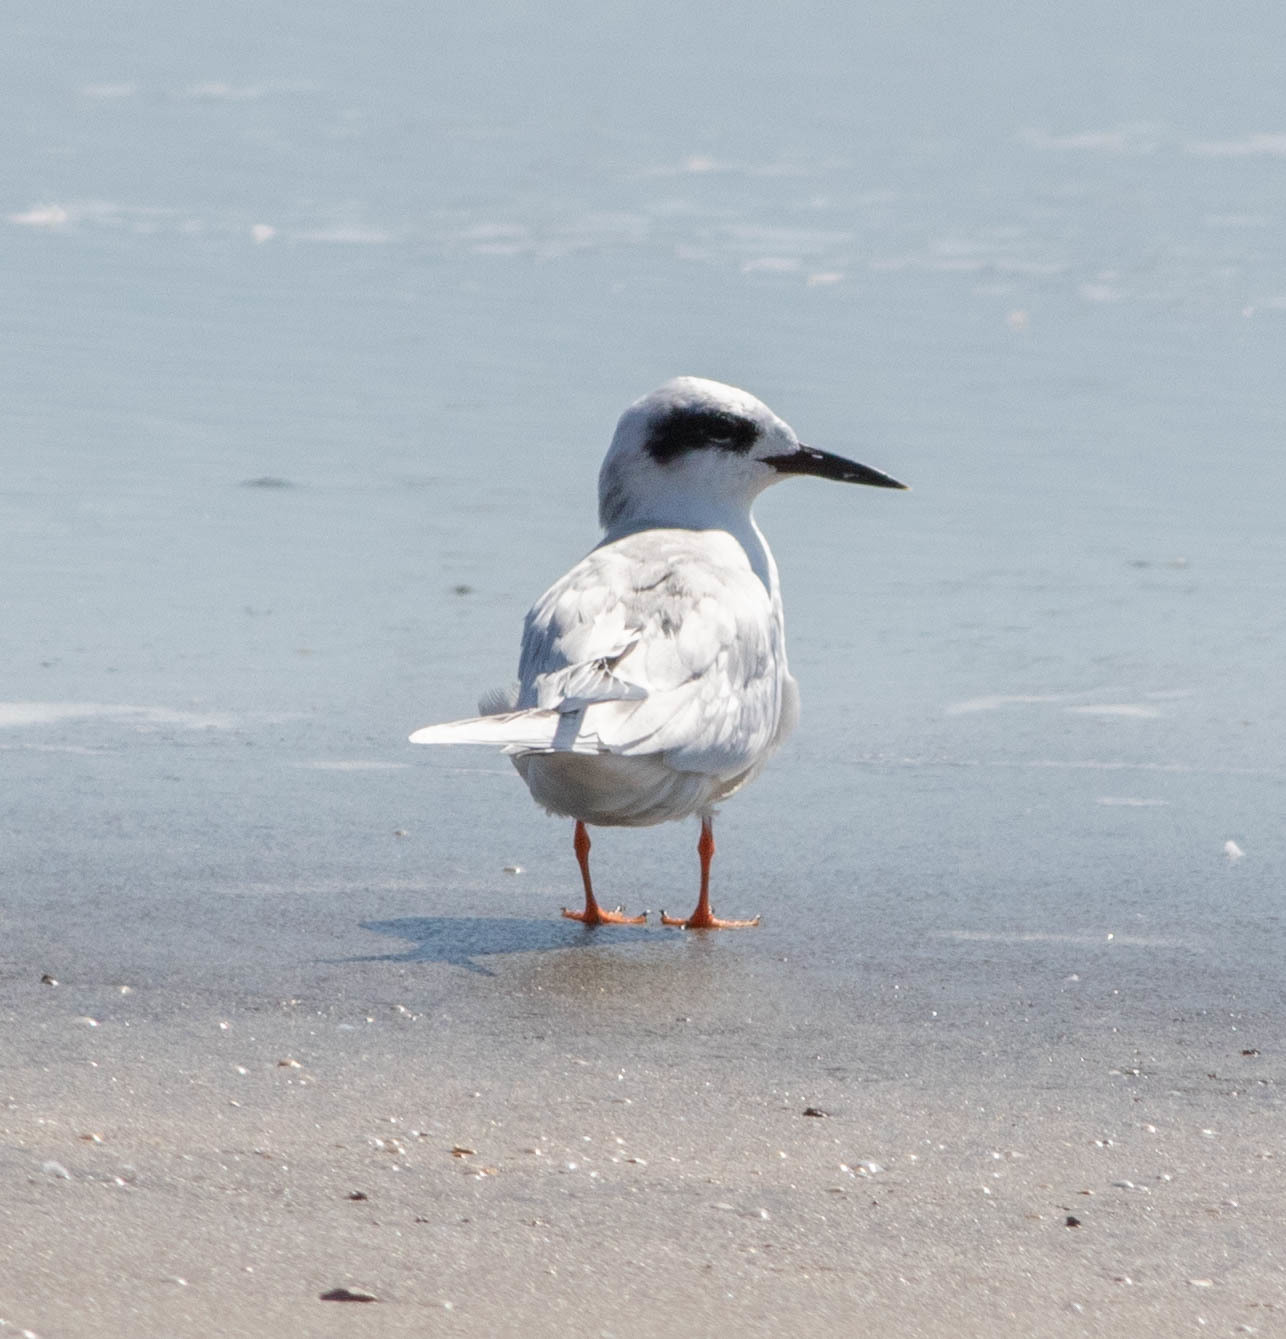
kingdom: Animalia
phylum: Chordata
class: Aves
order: Charadriiformes
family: Laridae
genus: Sterna
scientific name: Sterna forsteri
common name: Forster's tern
